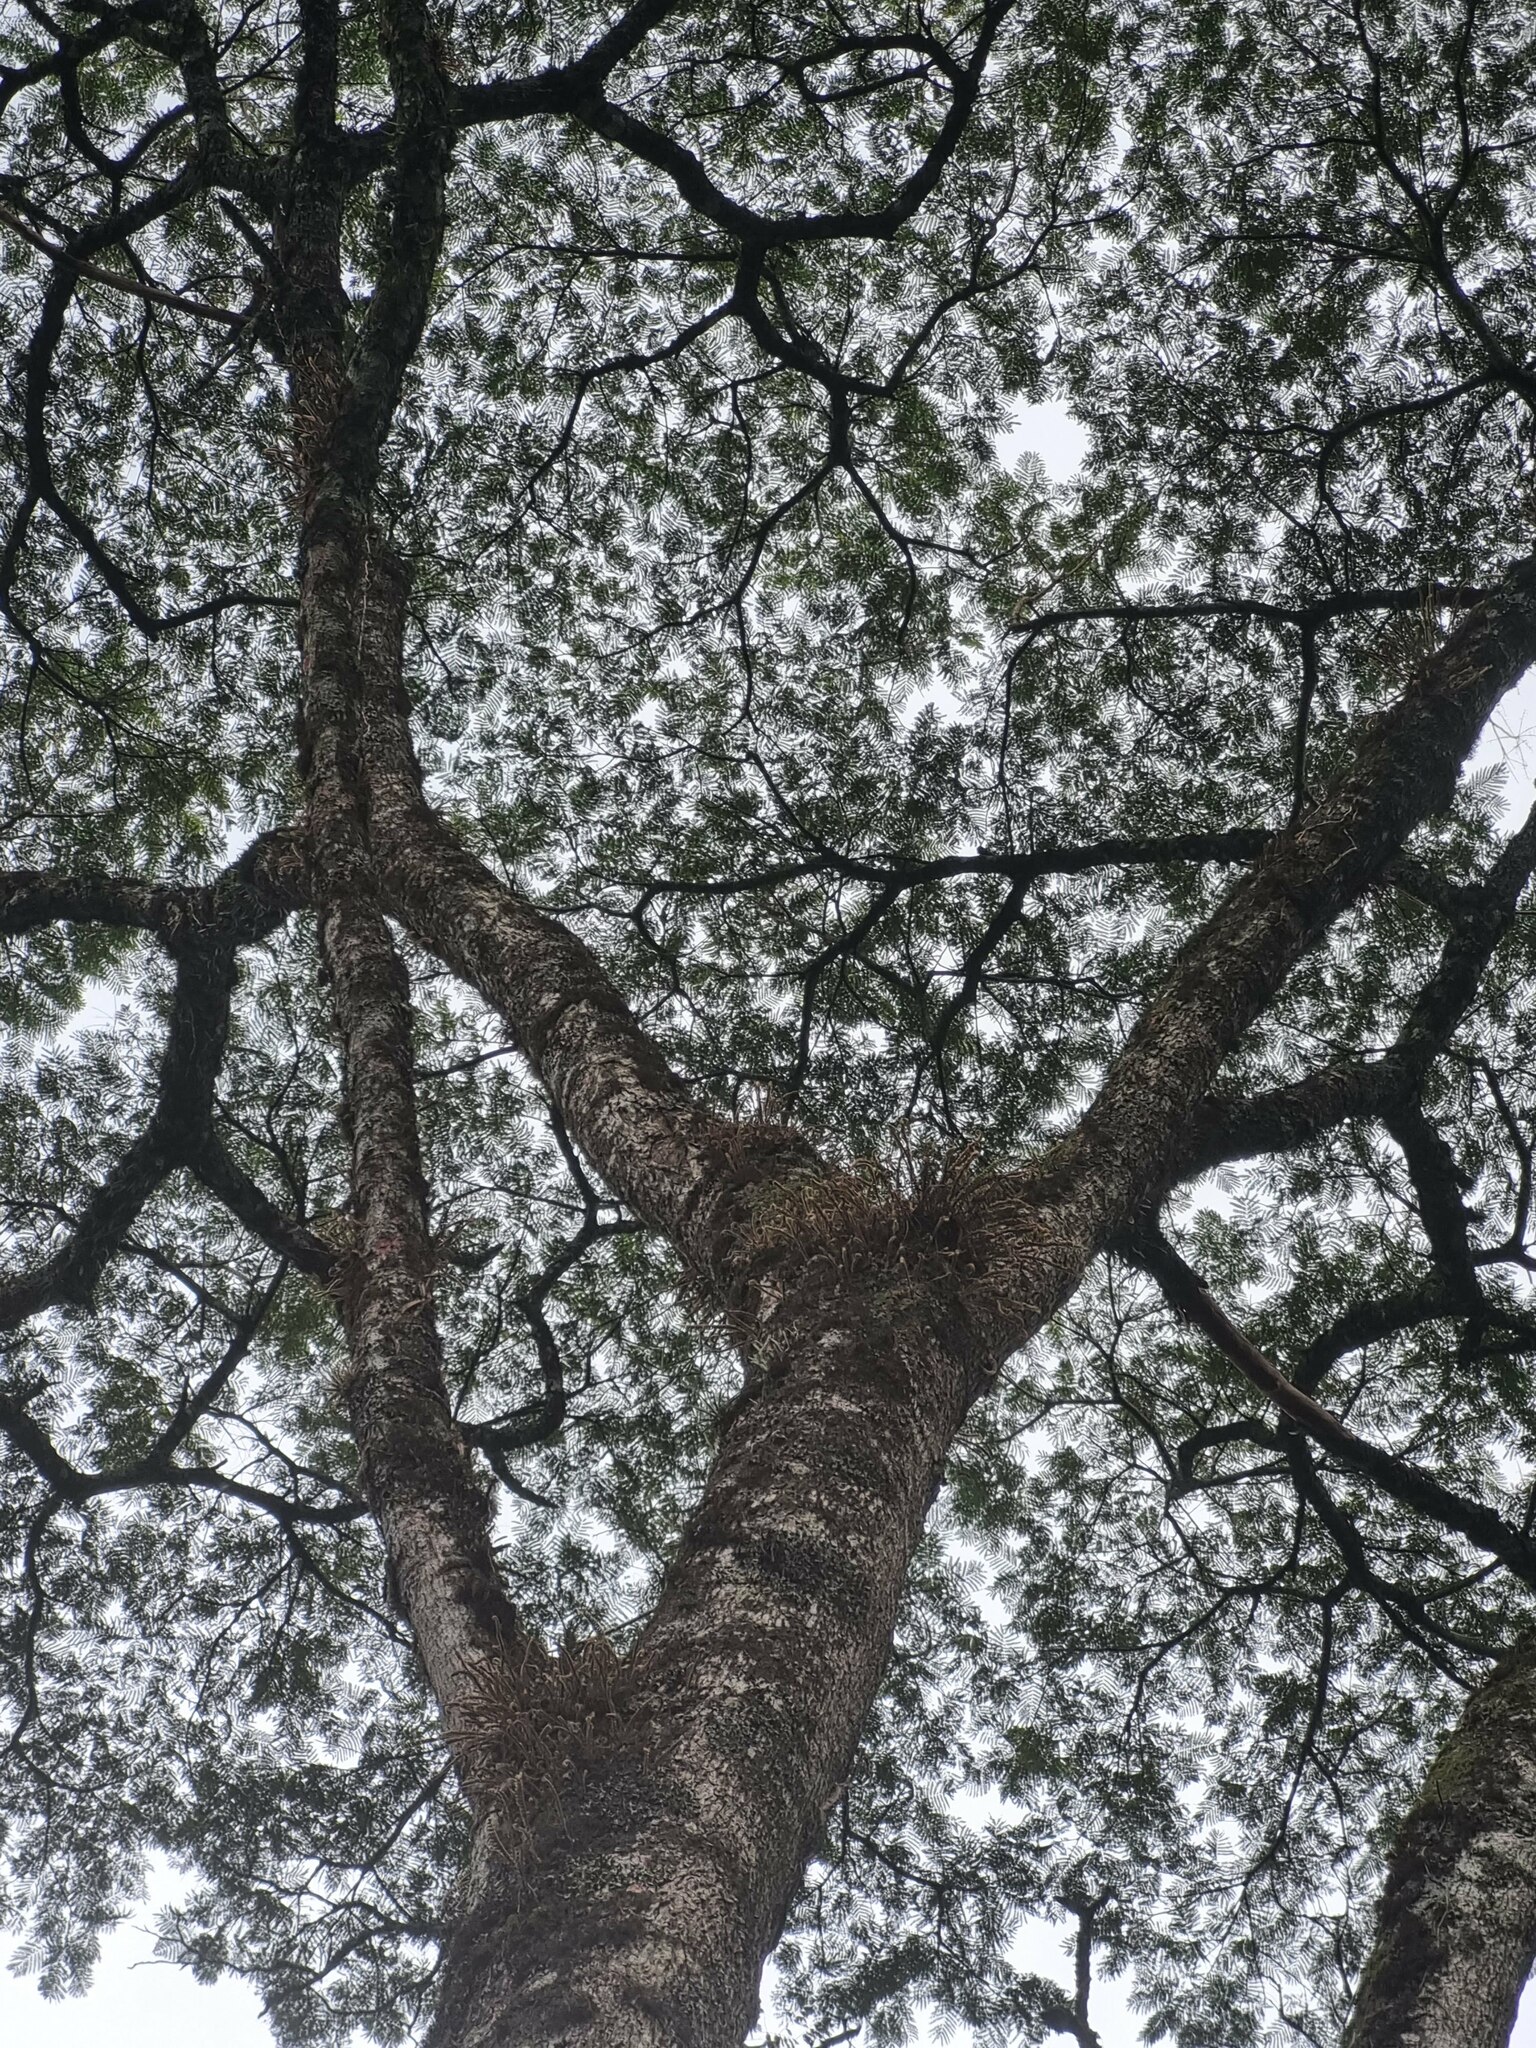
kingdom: Plantae
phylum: Tracheophyta
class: Magnoliopsida
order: Fabales
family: Fabaceae
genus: Enterolobium
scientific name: Enterolobium contortisiliquum
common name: Pacara earpod tree
